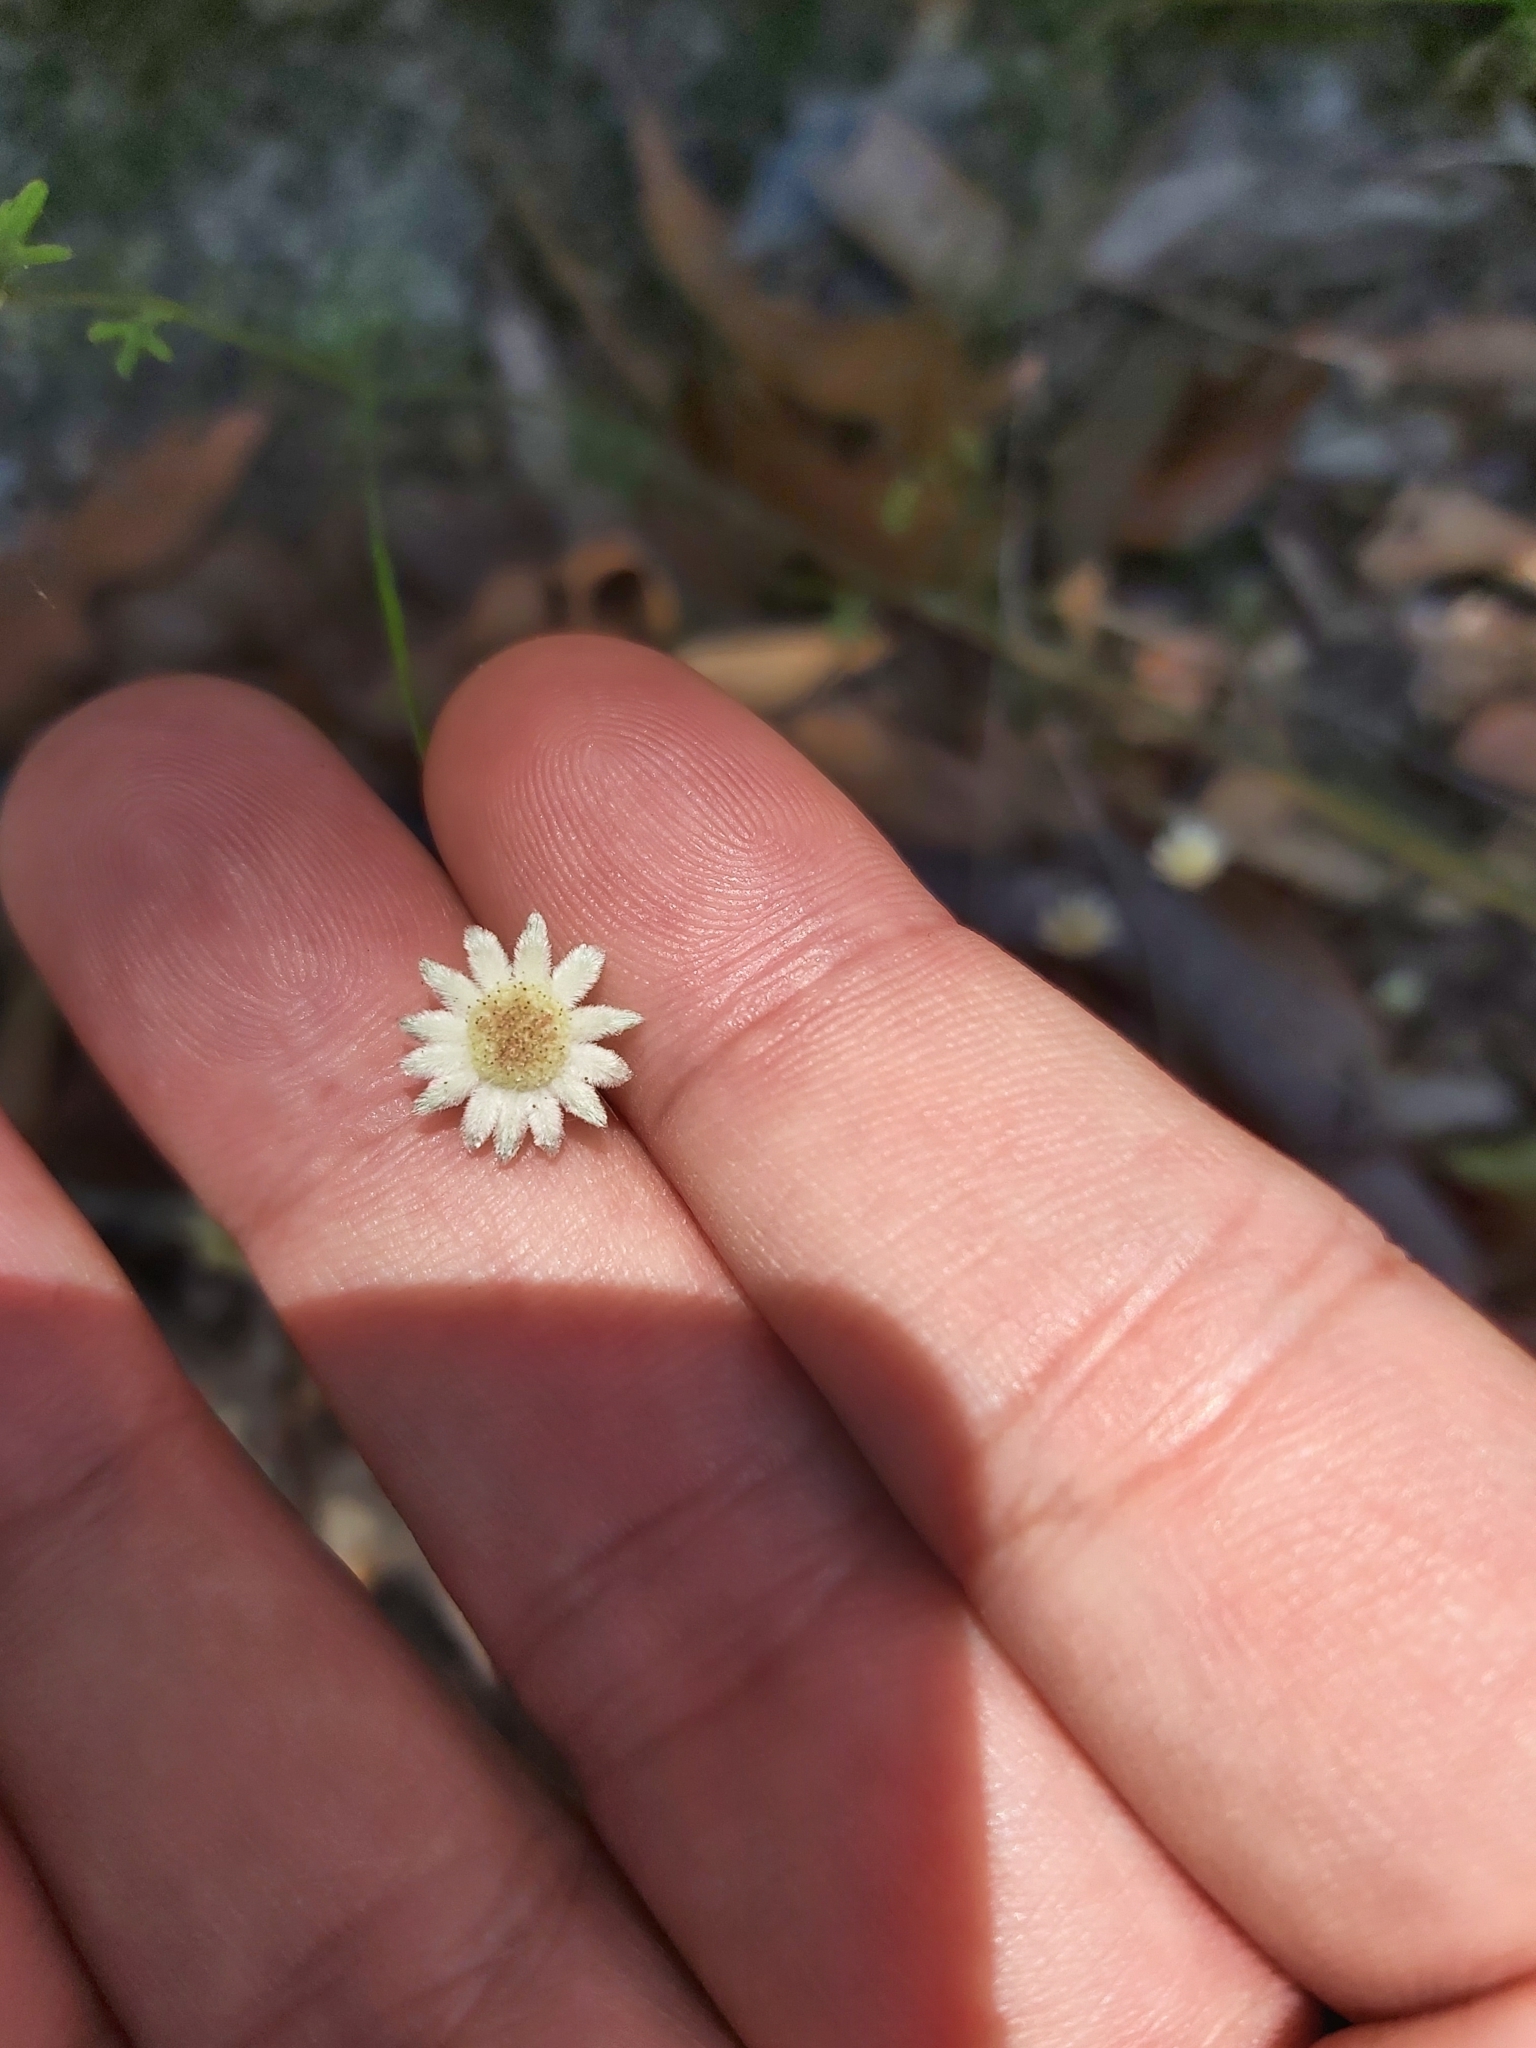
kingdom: Plantae
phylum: Tracheophyta
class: Magnoliopsida
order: Apiales
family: Apiaceae
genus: Actinotus
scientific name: Actinotus minor
